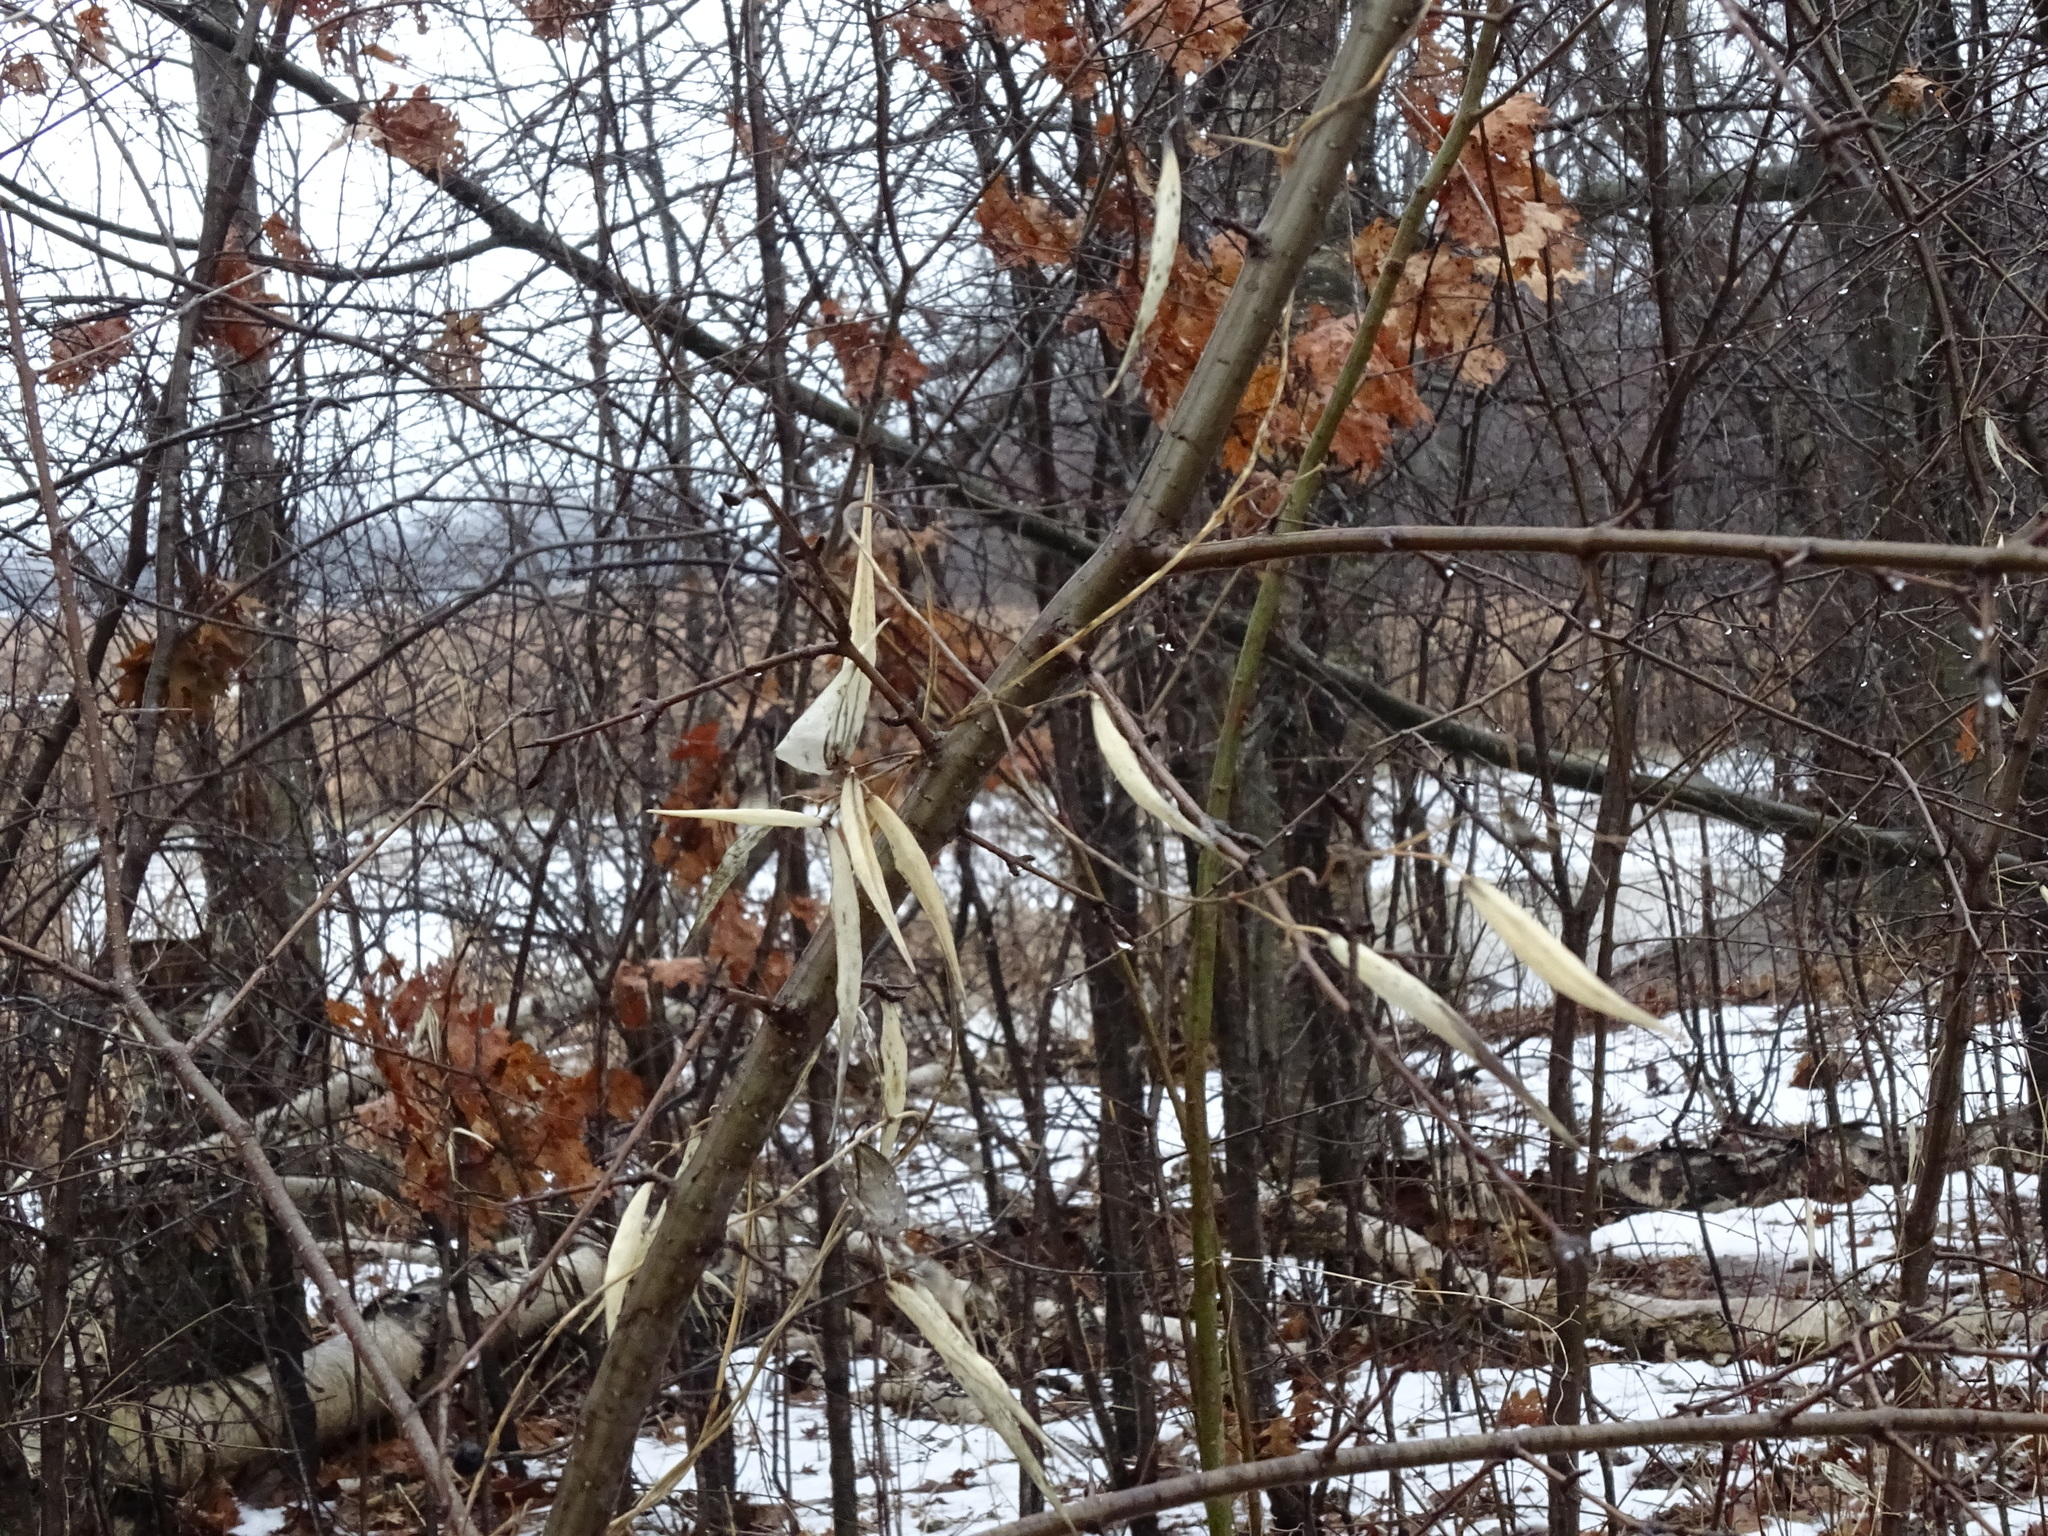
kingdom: Plantae
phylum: Tracheophyta
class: Magnoliopsida
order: Gentianales
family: Apocynaceae
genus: Vincetoxicum
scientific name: Vincetoxicum rossicum
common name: Dog-strangling vine
